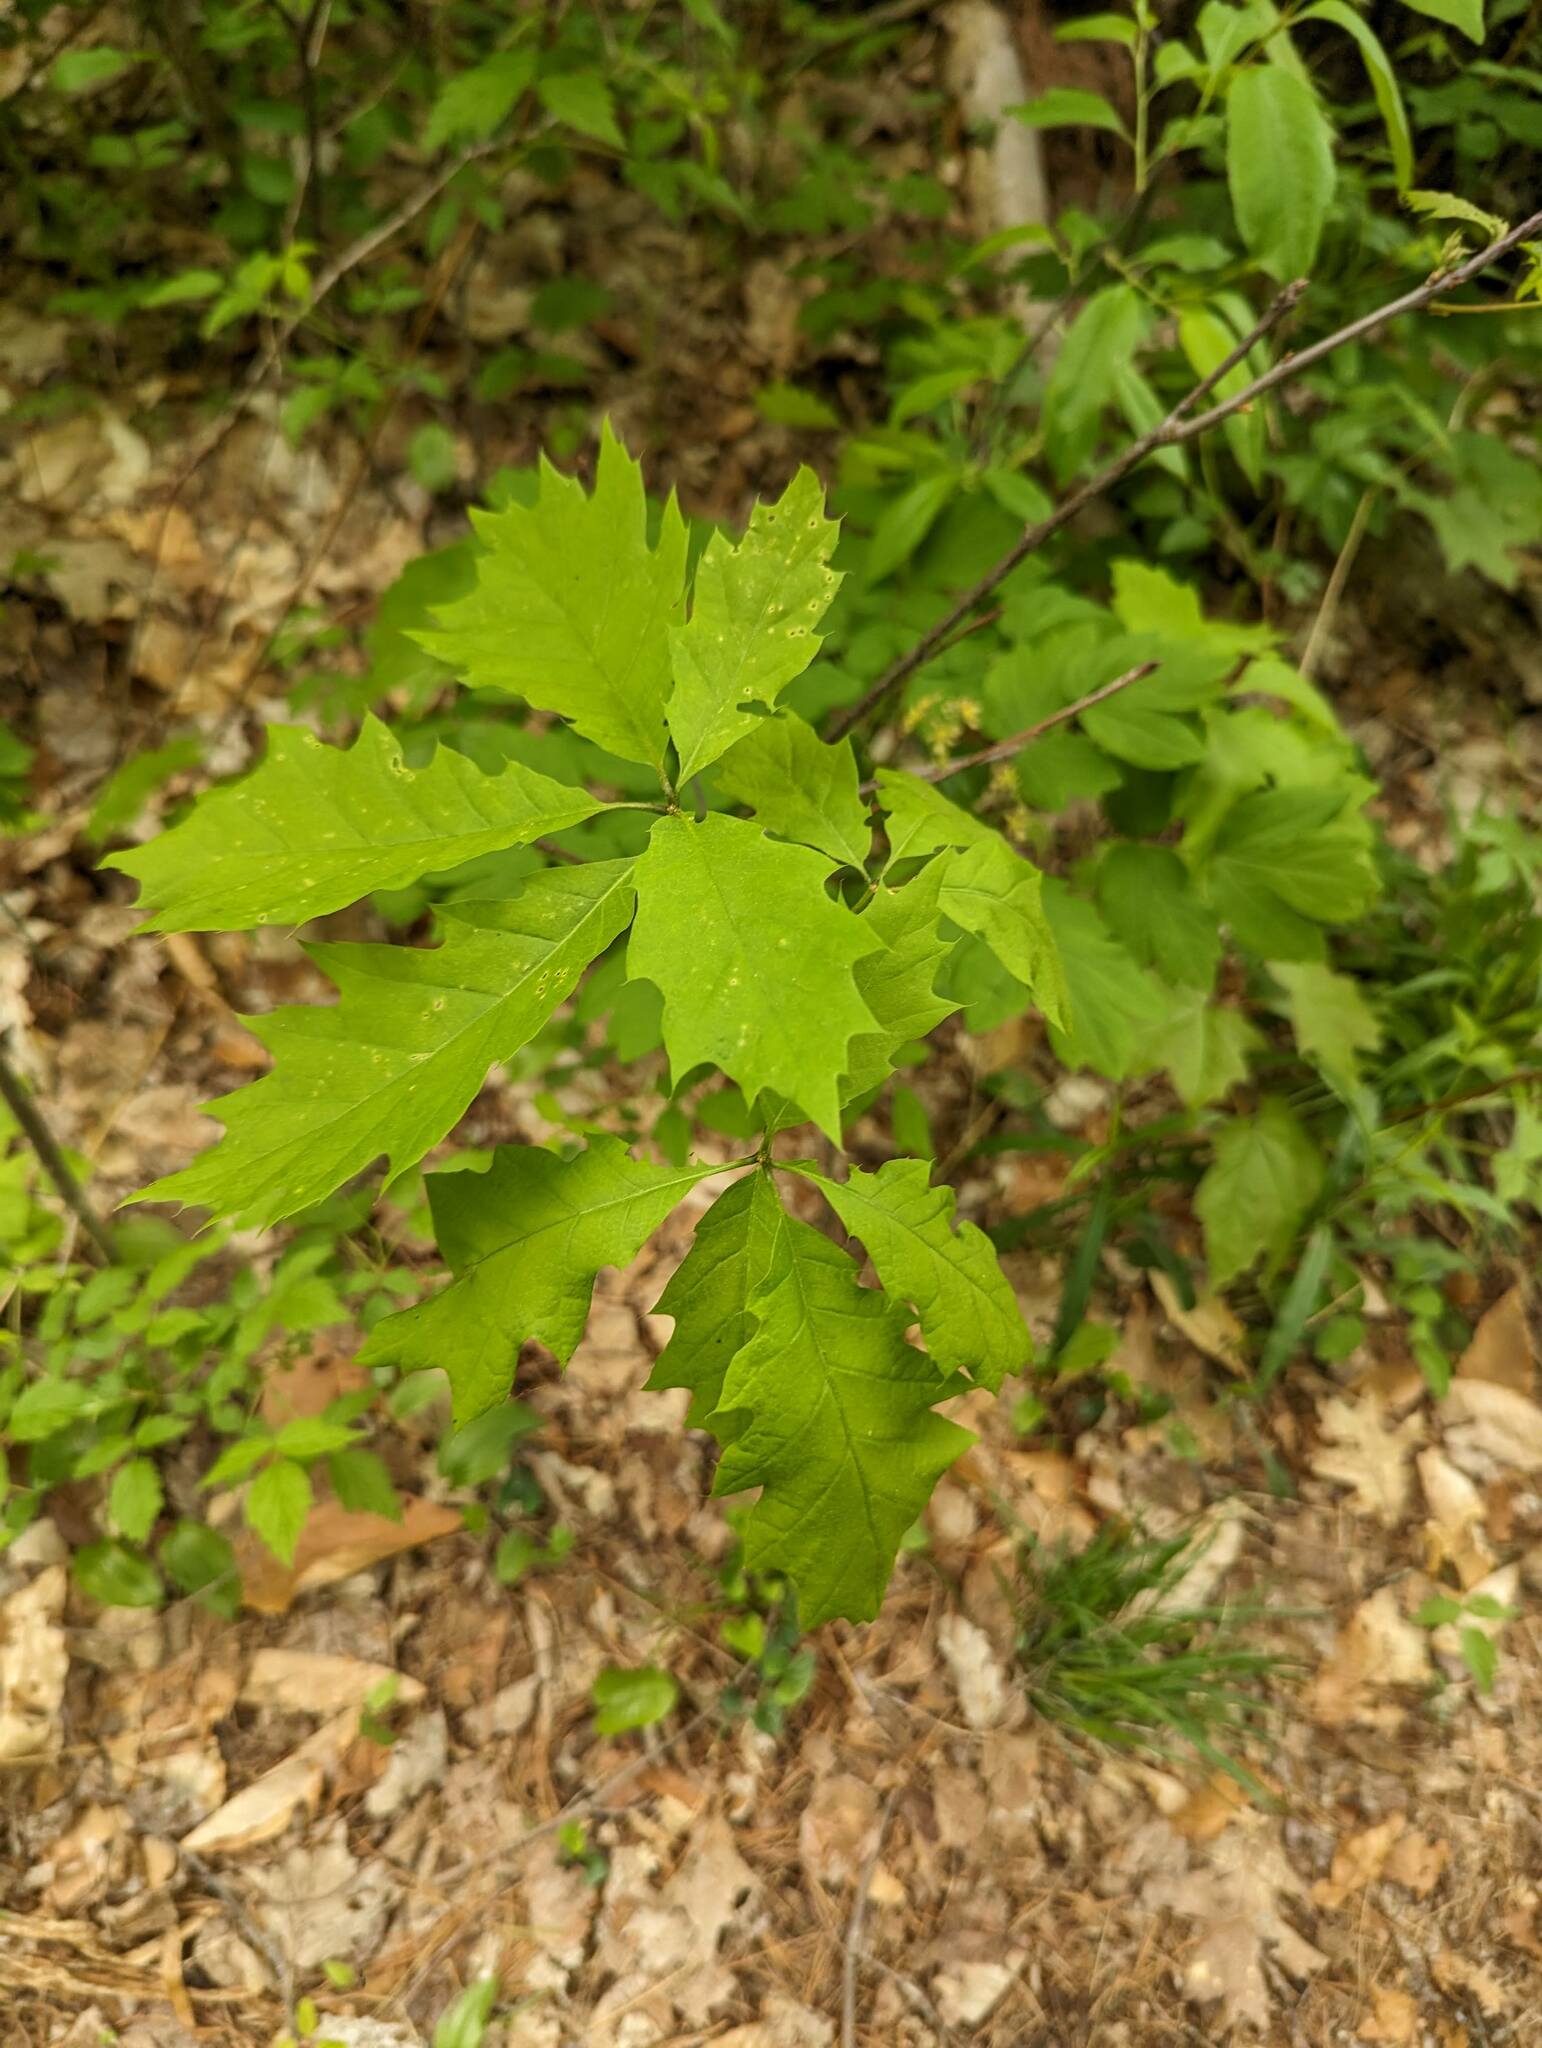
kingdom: Plantae
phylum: Tracheophyta
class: Magnoliopsida
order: Fagales
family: Fagaceae
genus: Quercus
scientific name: Quercus rubra
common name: Red oak
